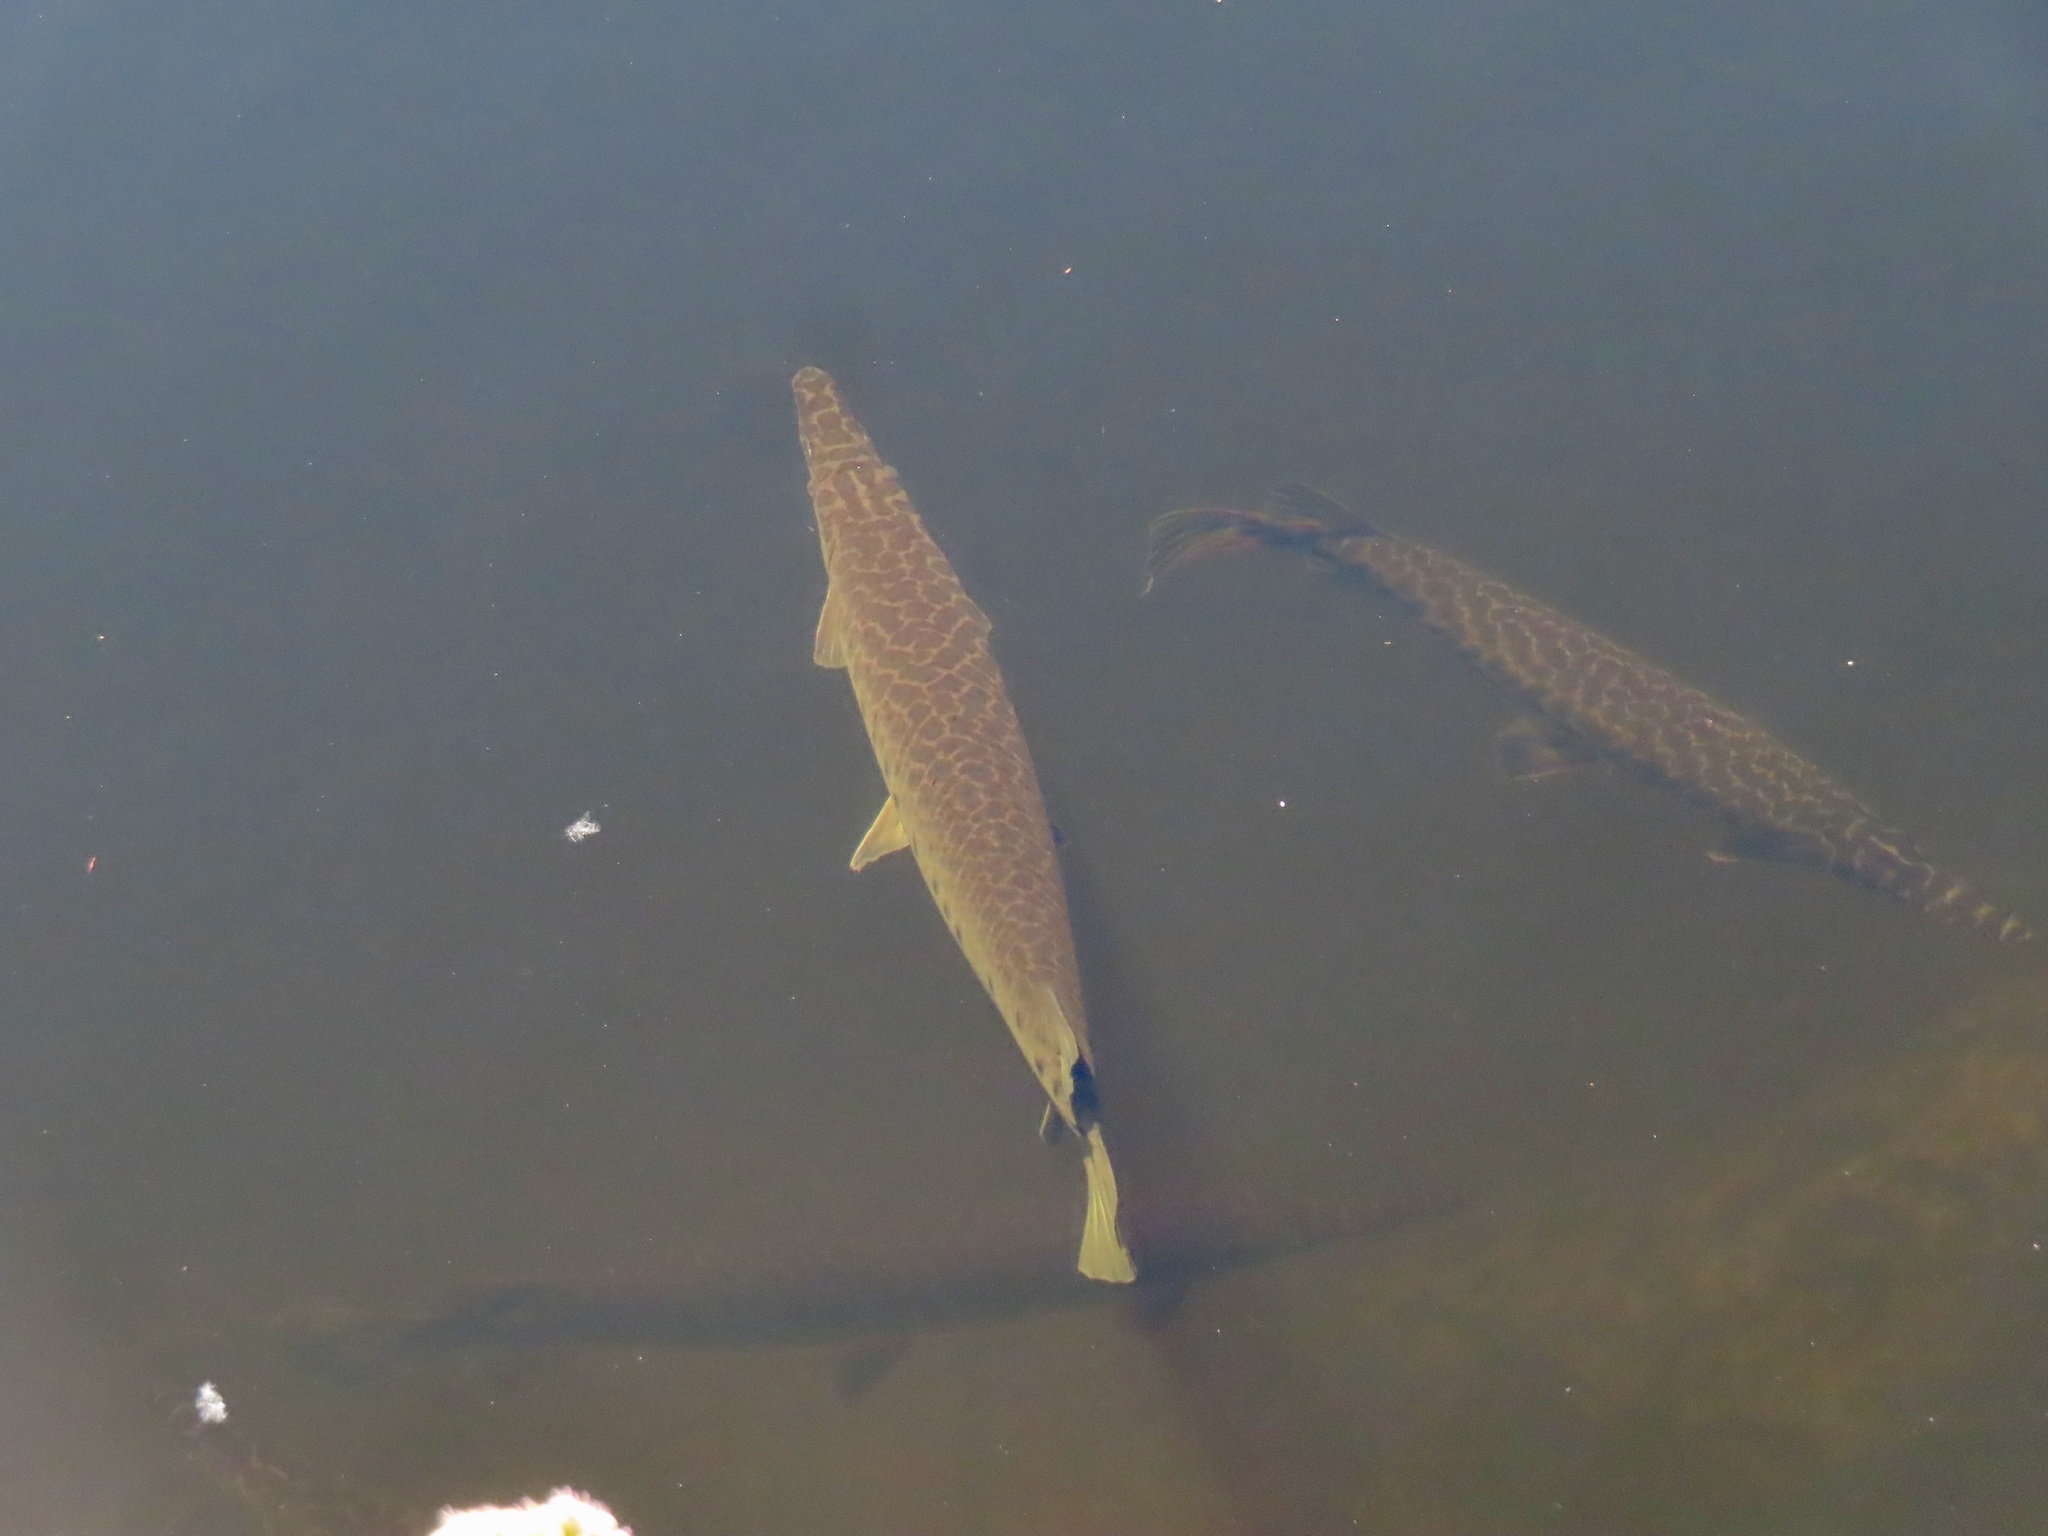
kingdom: Animalia
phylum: Chordata
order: Lepisosteiformes
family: Lepisosteidae
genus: Lepisosteus
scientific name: Lepisosteus platyrhincus
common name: Florida gar
